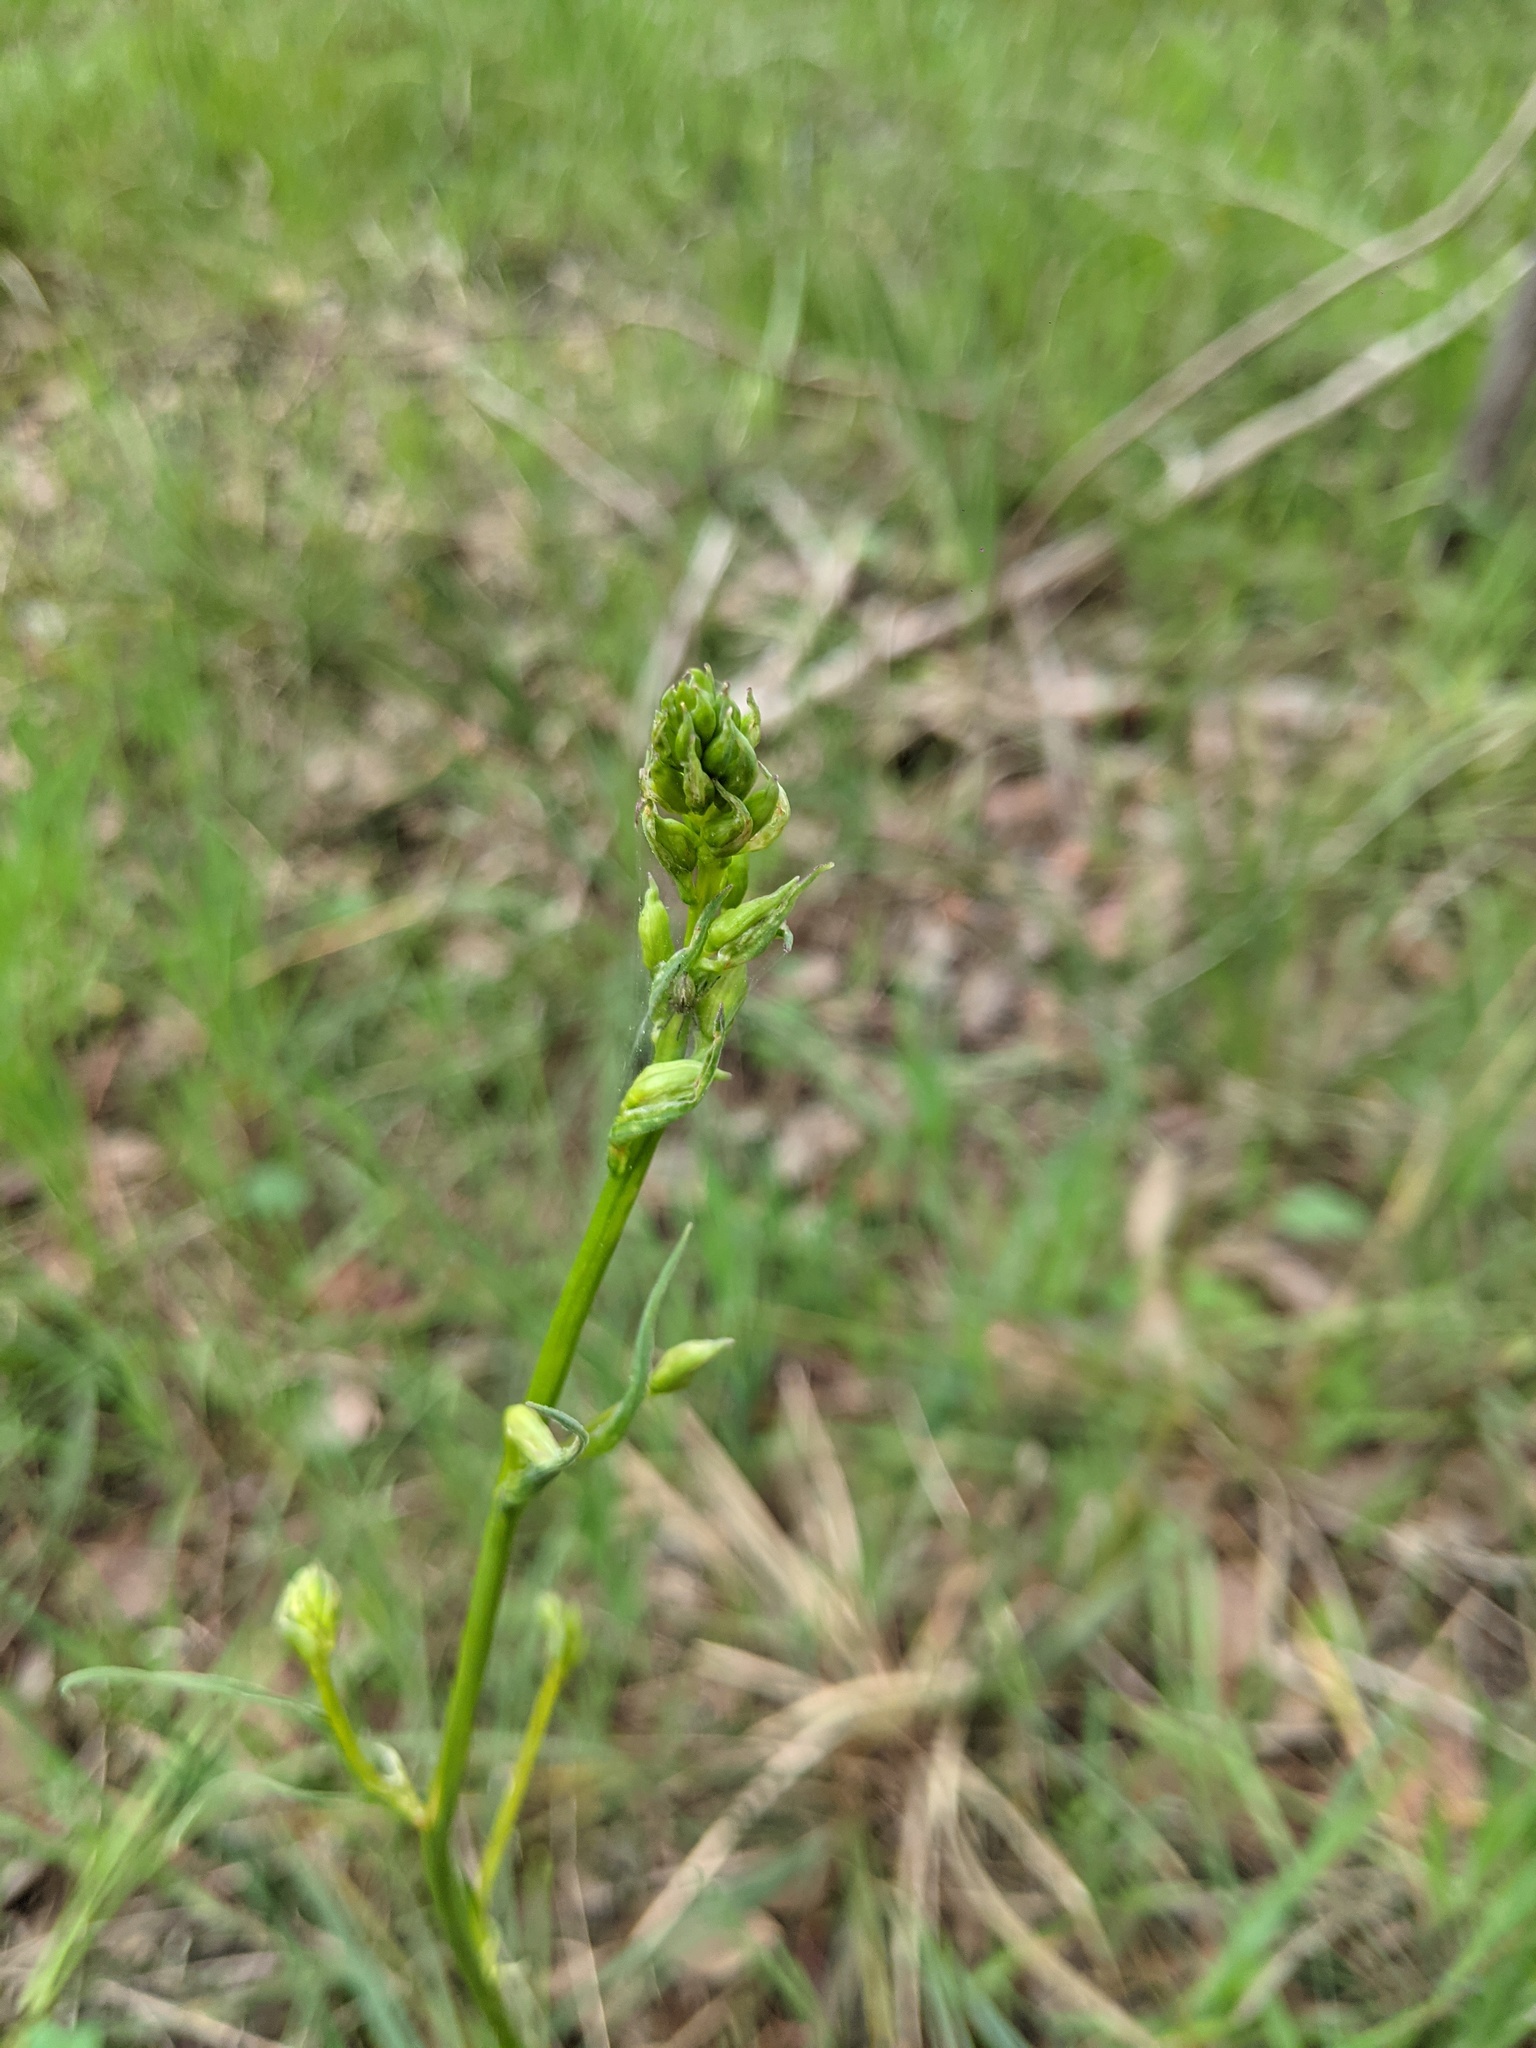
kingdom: Plantae
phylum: Tracheophyta
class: Liliopsida
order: Asparagales
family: Asparagaceae
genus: Arthropodium
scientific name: Arthropodium strictum
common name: Chocolate-lily
